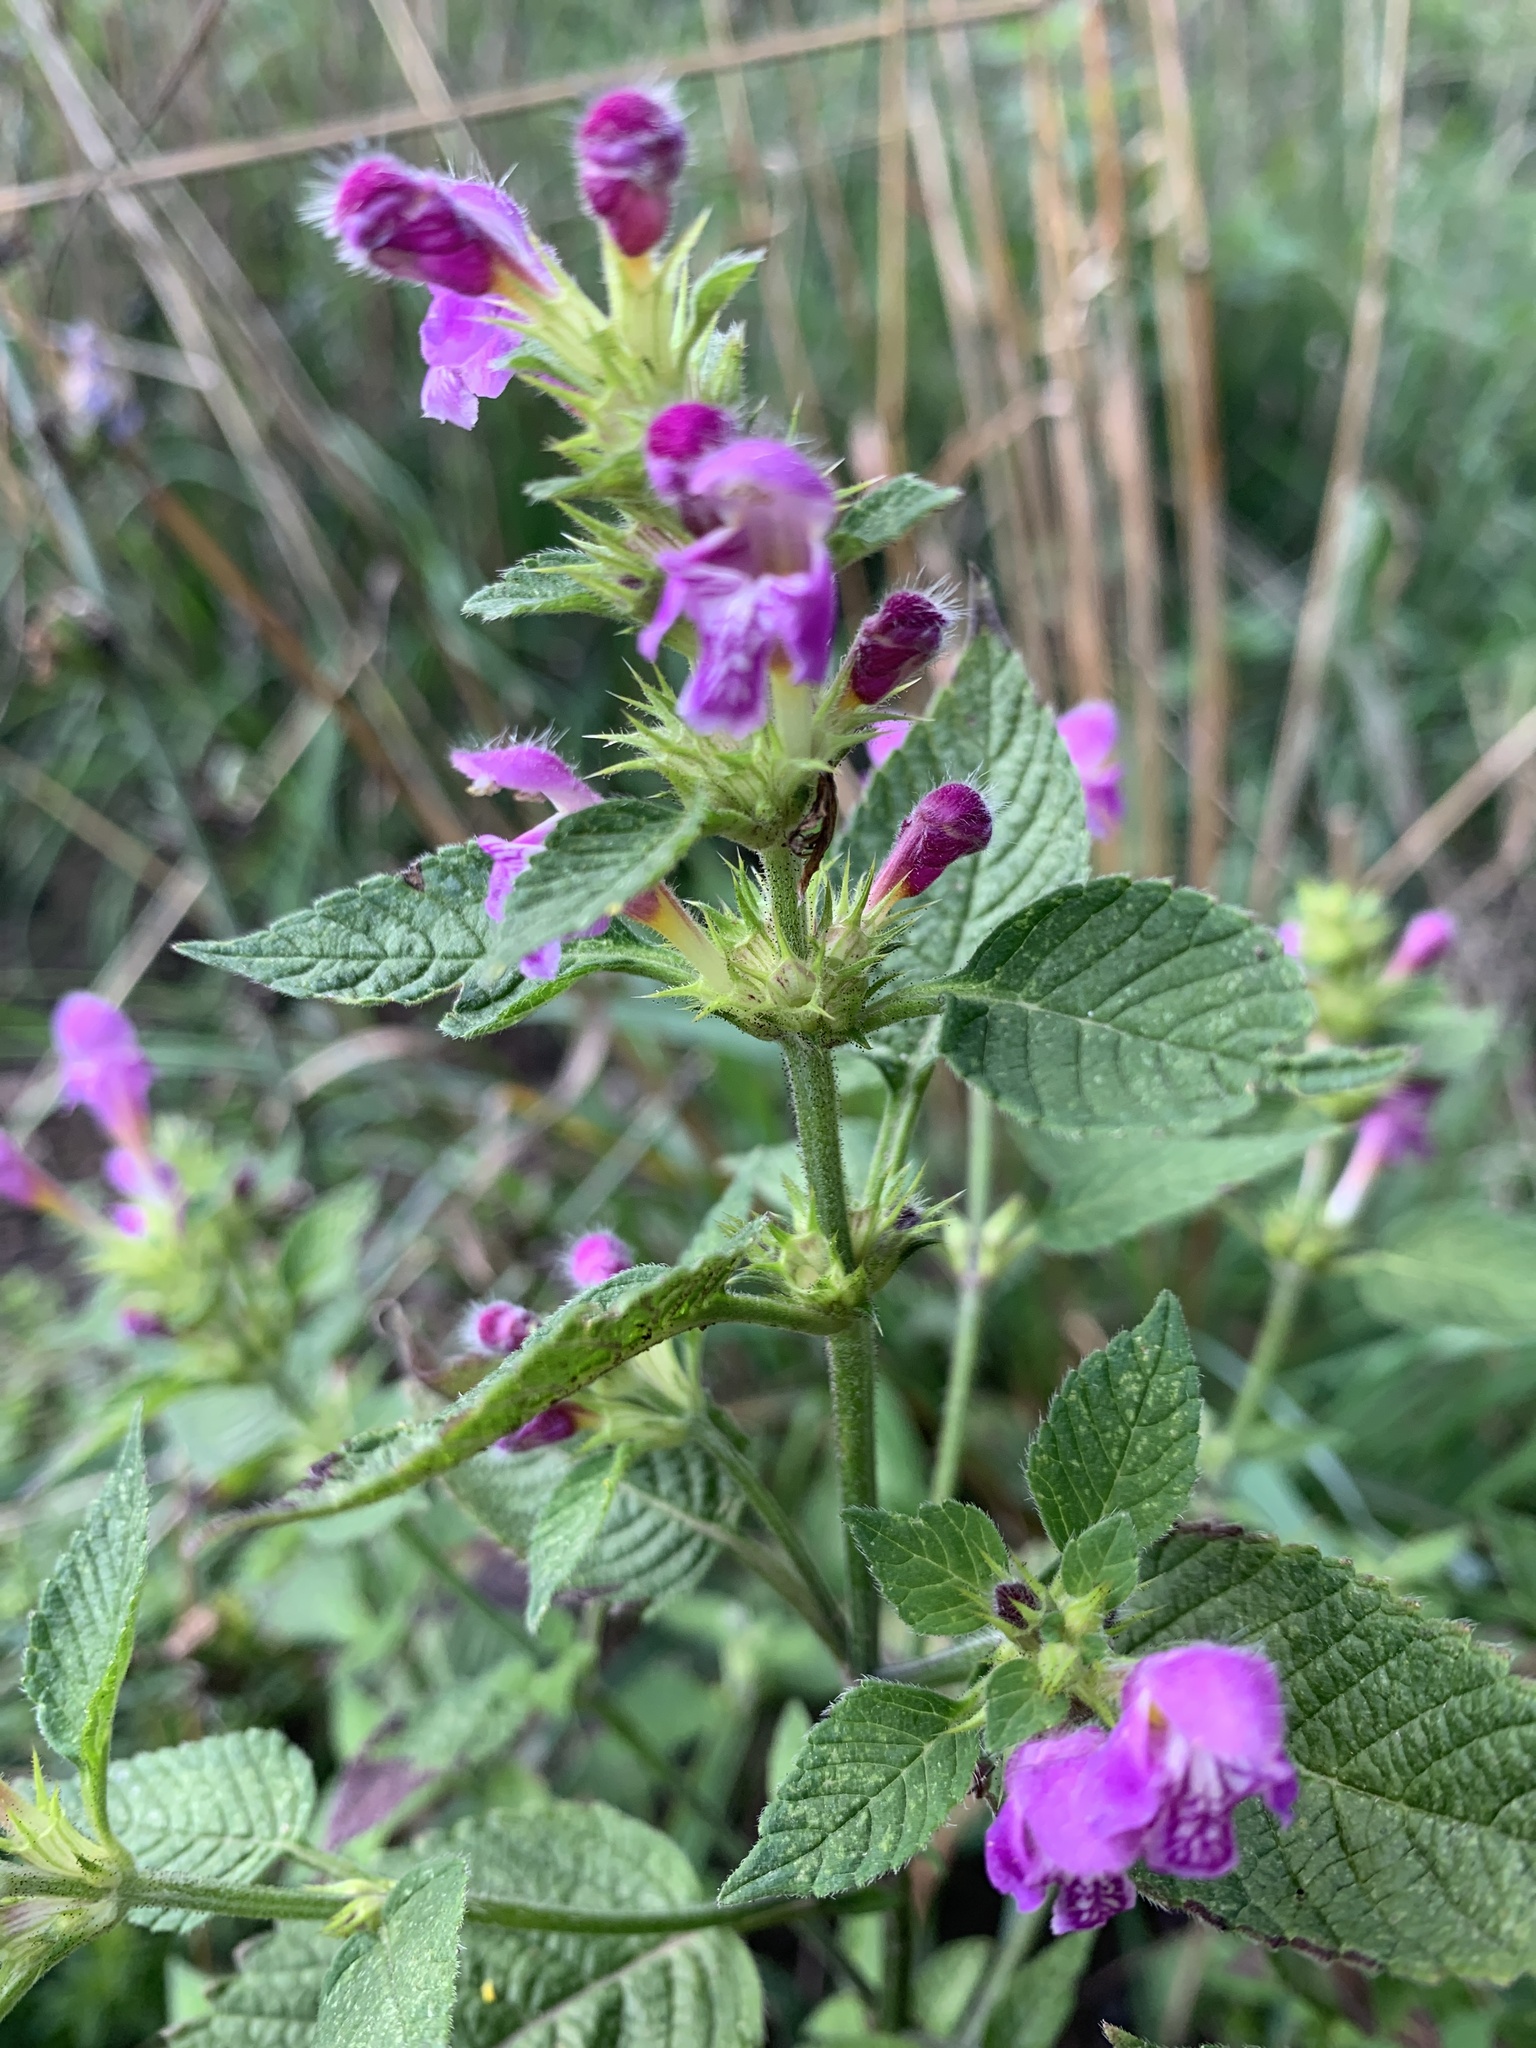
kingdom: Plantae
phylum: Tracheophyta
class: Magnoliopsida
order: Lamiales
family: Lamiaceae
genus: Galeopsis
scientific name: Galeopsis pubescens
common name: Downy hemp-nettle
